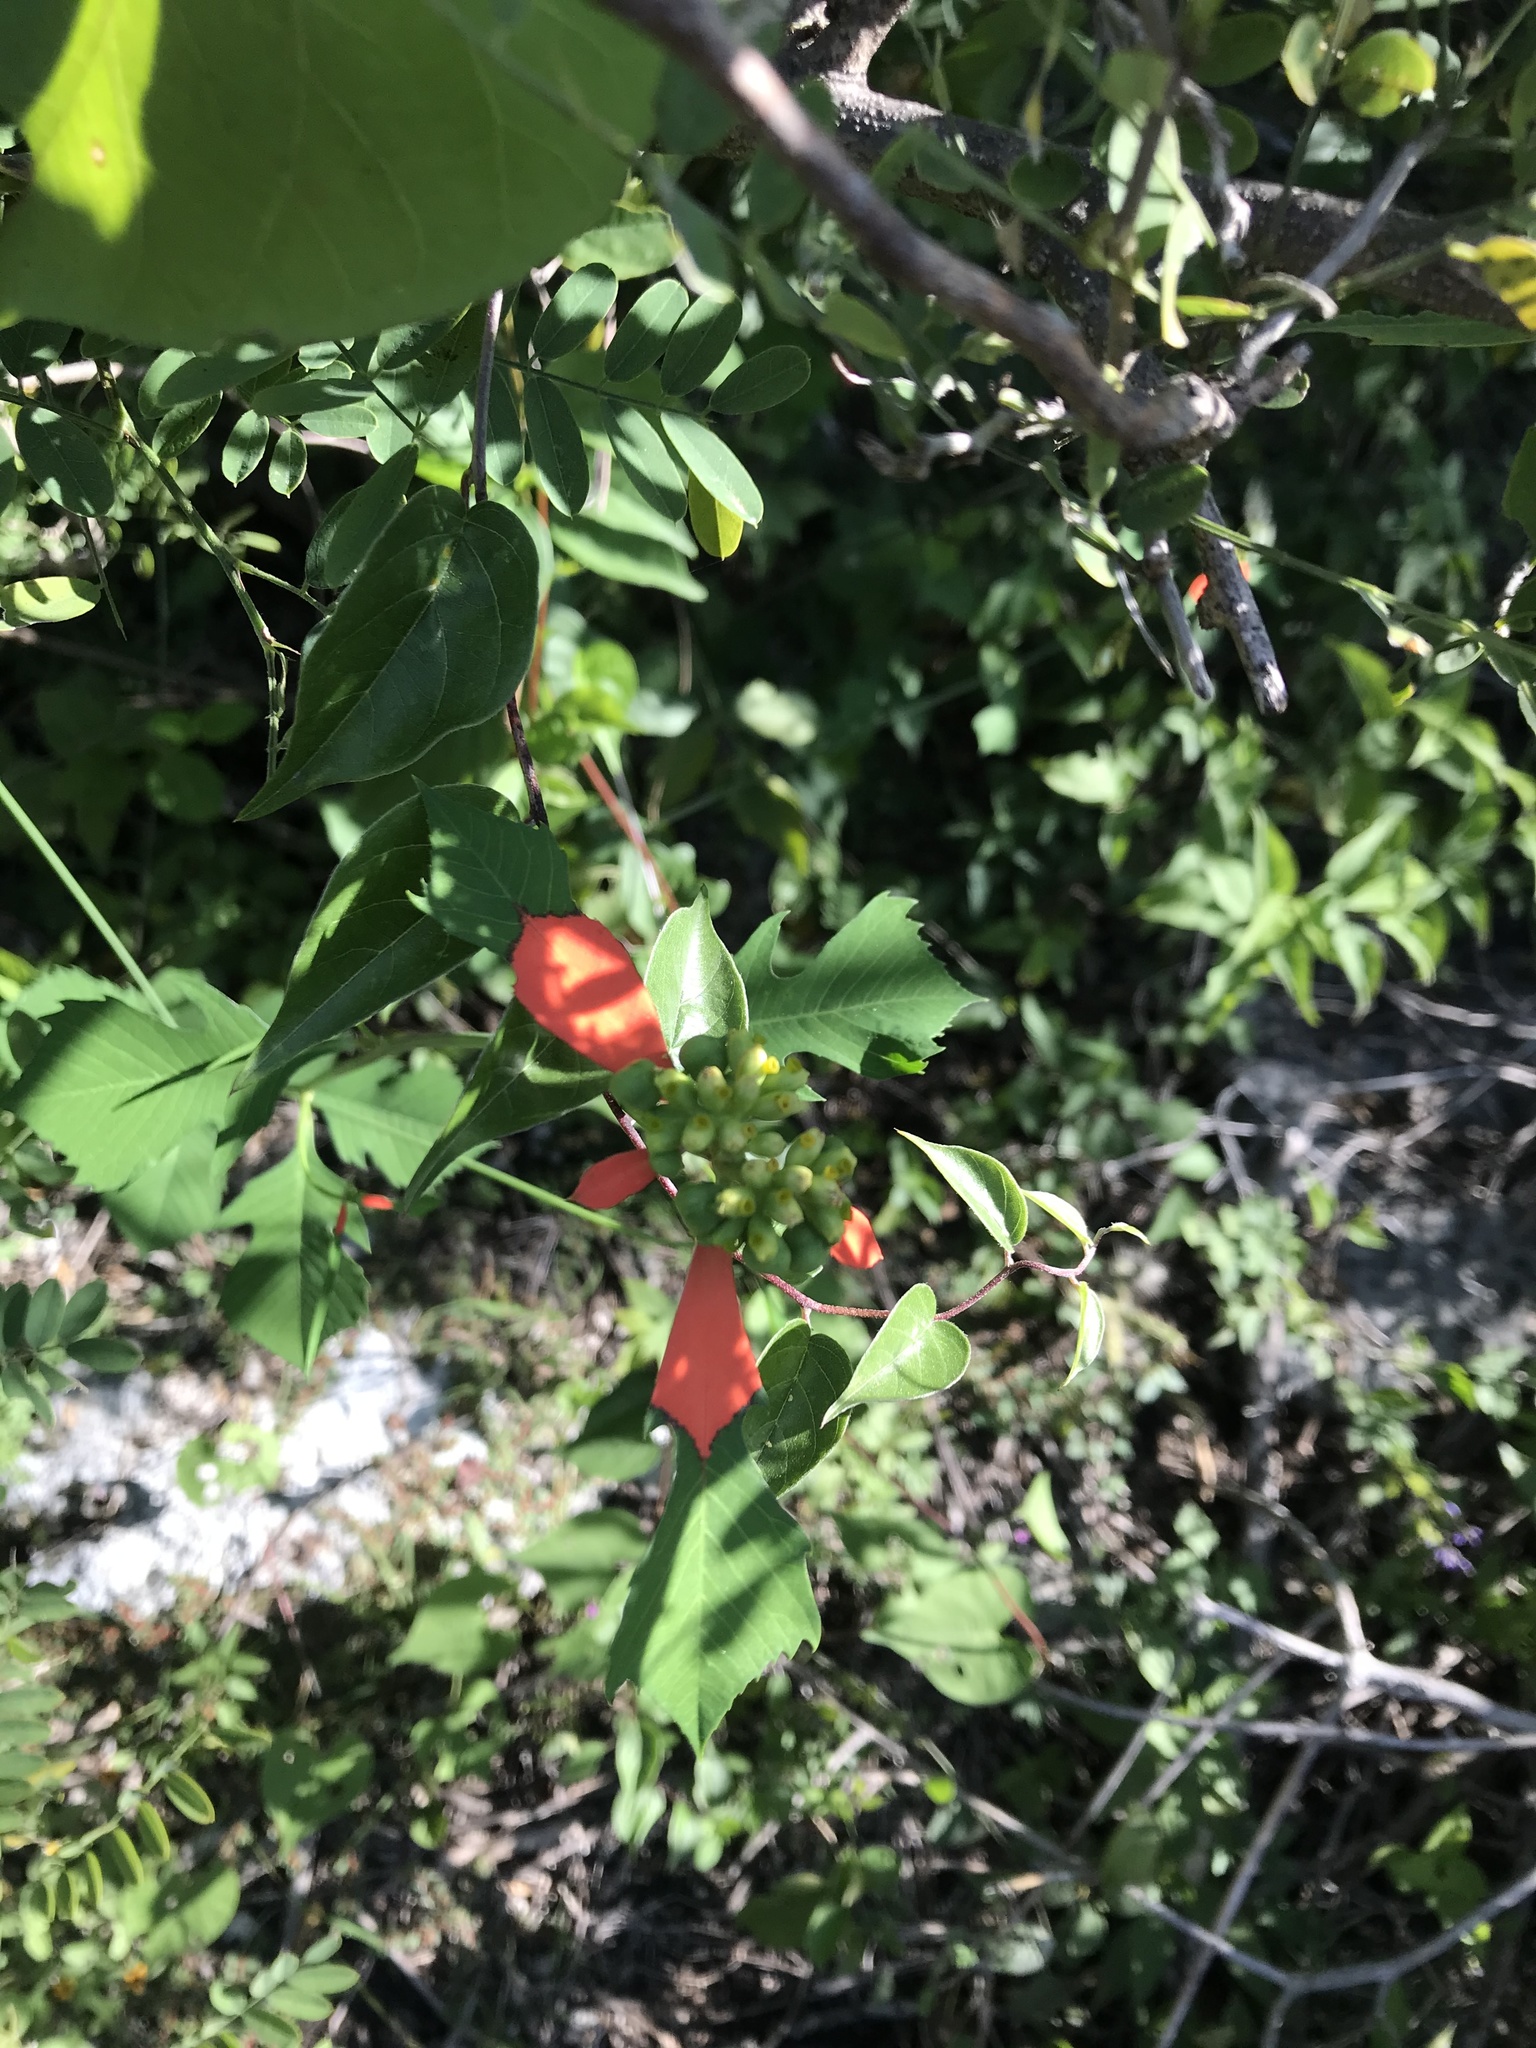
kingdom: Plantae
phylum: Tracheophyta
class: Magnoliopsida
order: Malpighiales
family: Euphorbiaceae
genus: Euphorbia
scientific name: Euphorbia heterophylla
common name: Mexican fireplant
